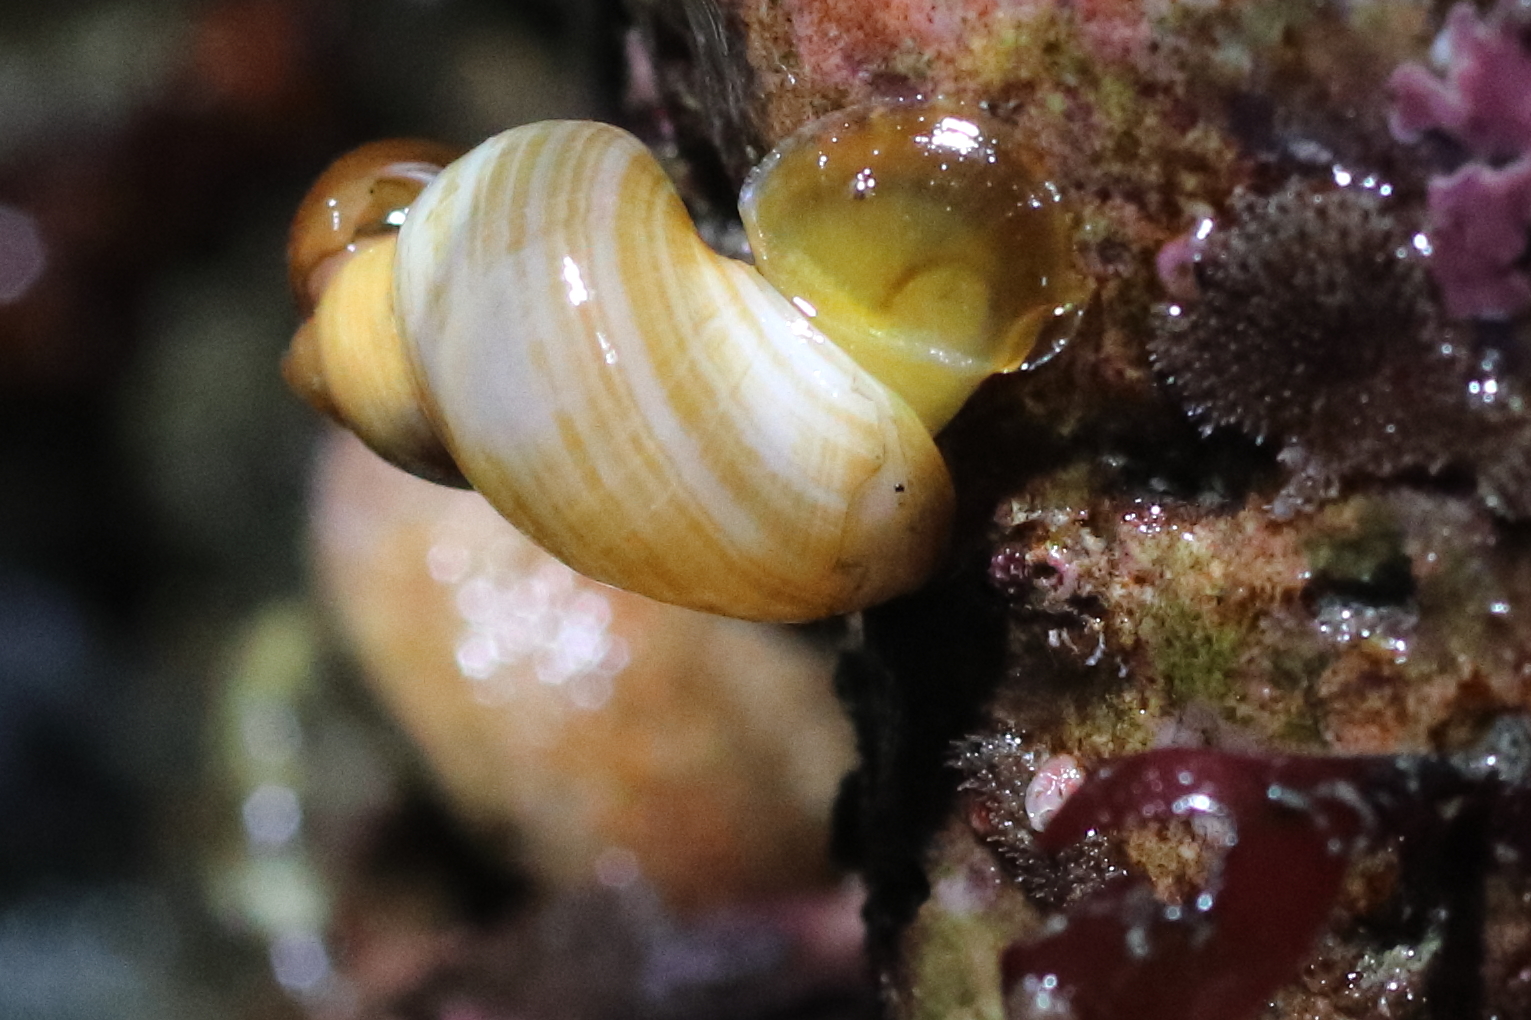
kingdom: Animalia
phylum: Mollusca
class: Gastropoda
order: Littorinimorpha
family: Littorinidae
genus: Lacuna
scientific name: Lacuna vincta
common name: Banded chink shell
